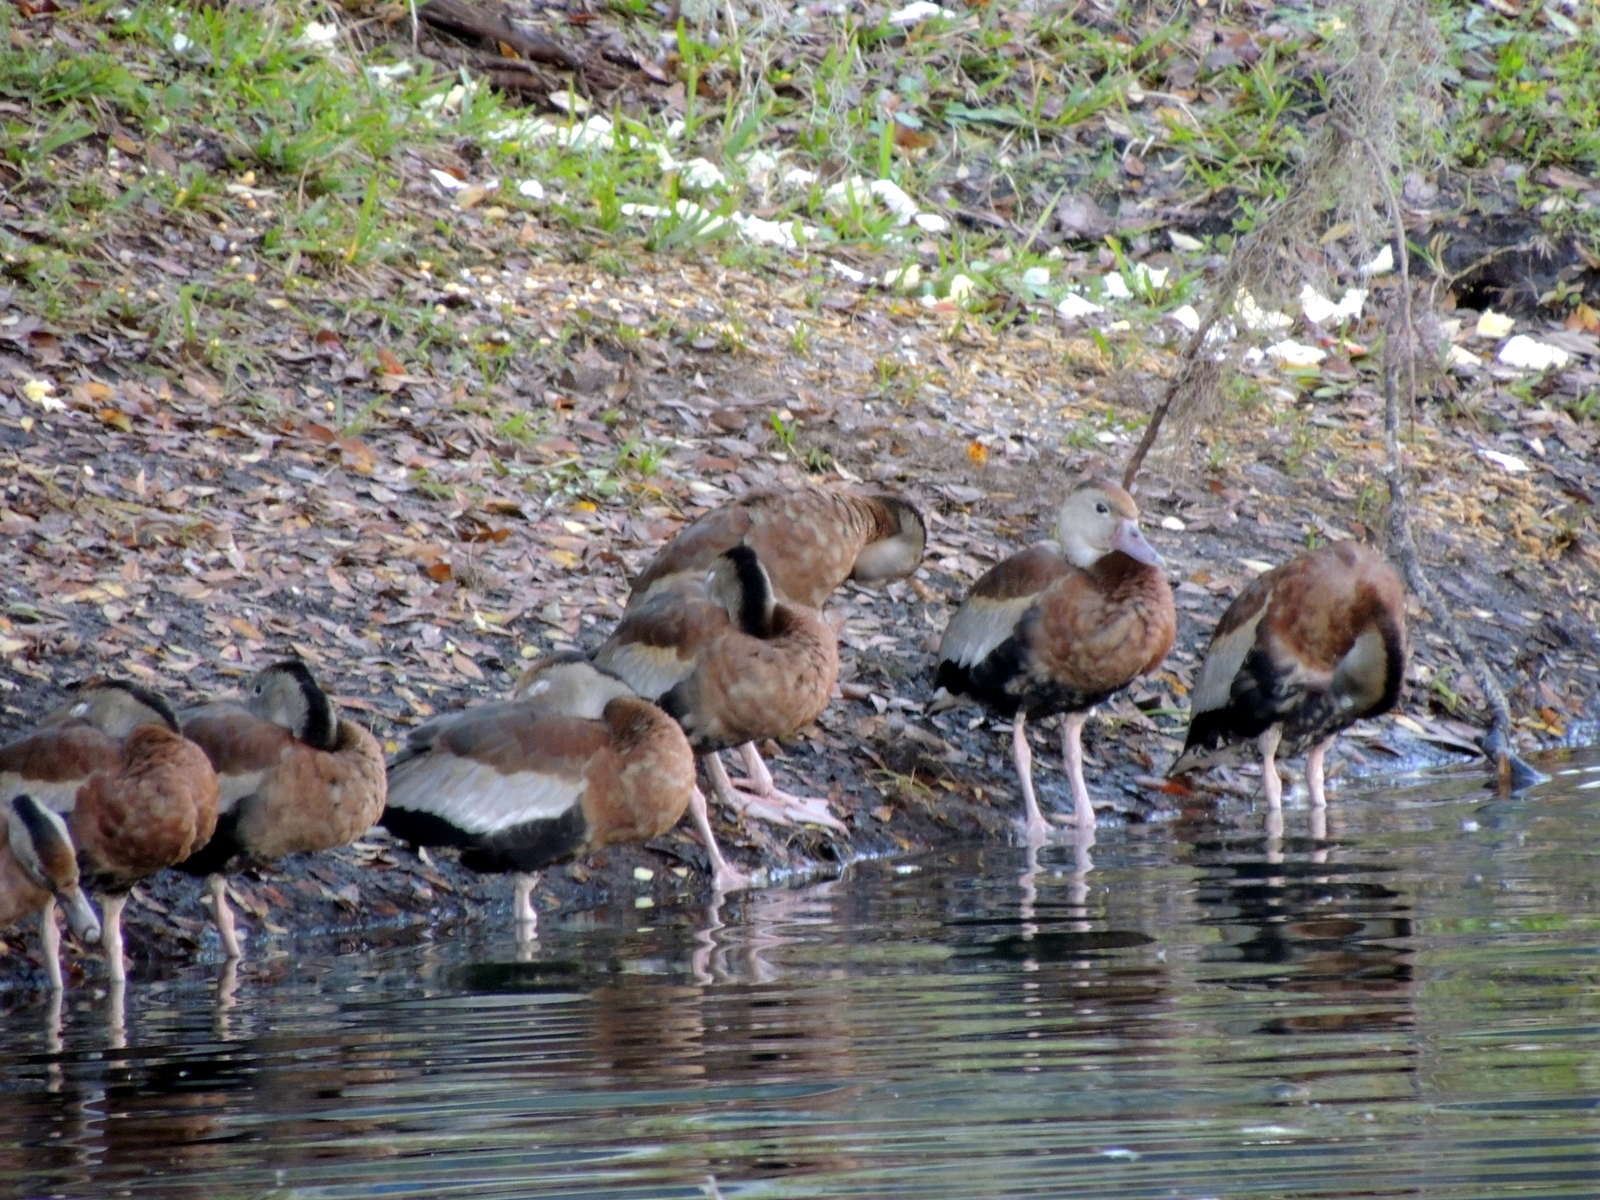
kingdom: Animalia
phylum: Chordata
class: Aves
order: Anseriformes
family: Anatidae
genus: Dendrocygna
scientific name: Dendrocygna autumnalis
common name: Black-bellied whistling duck
